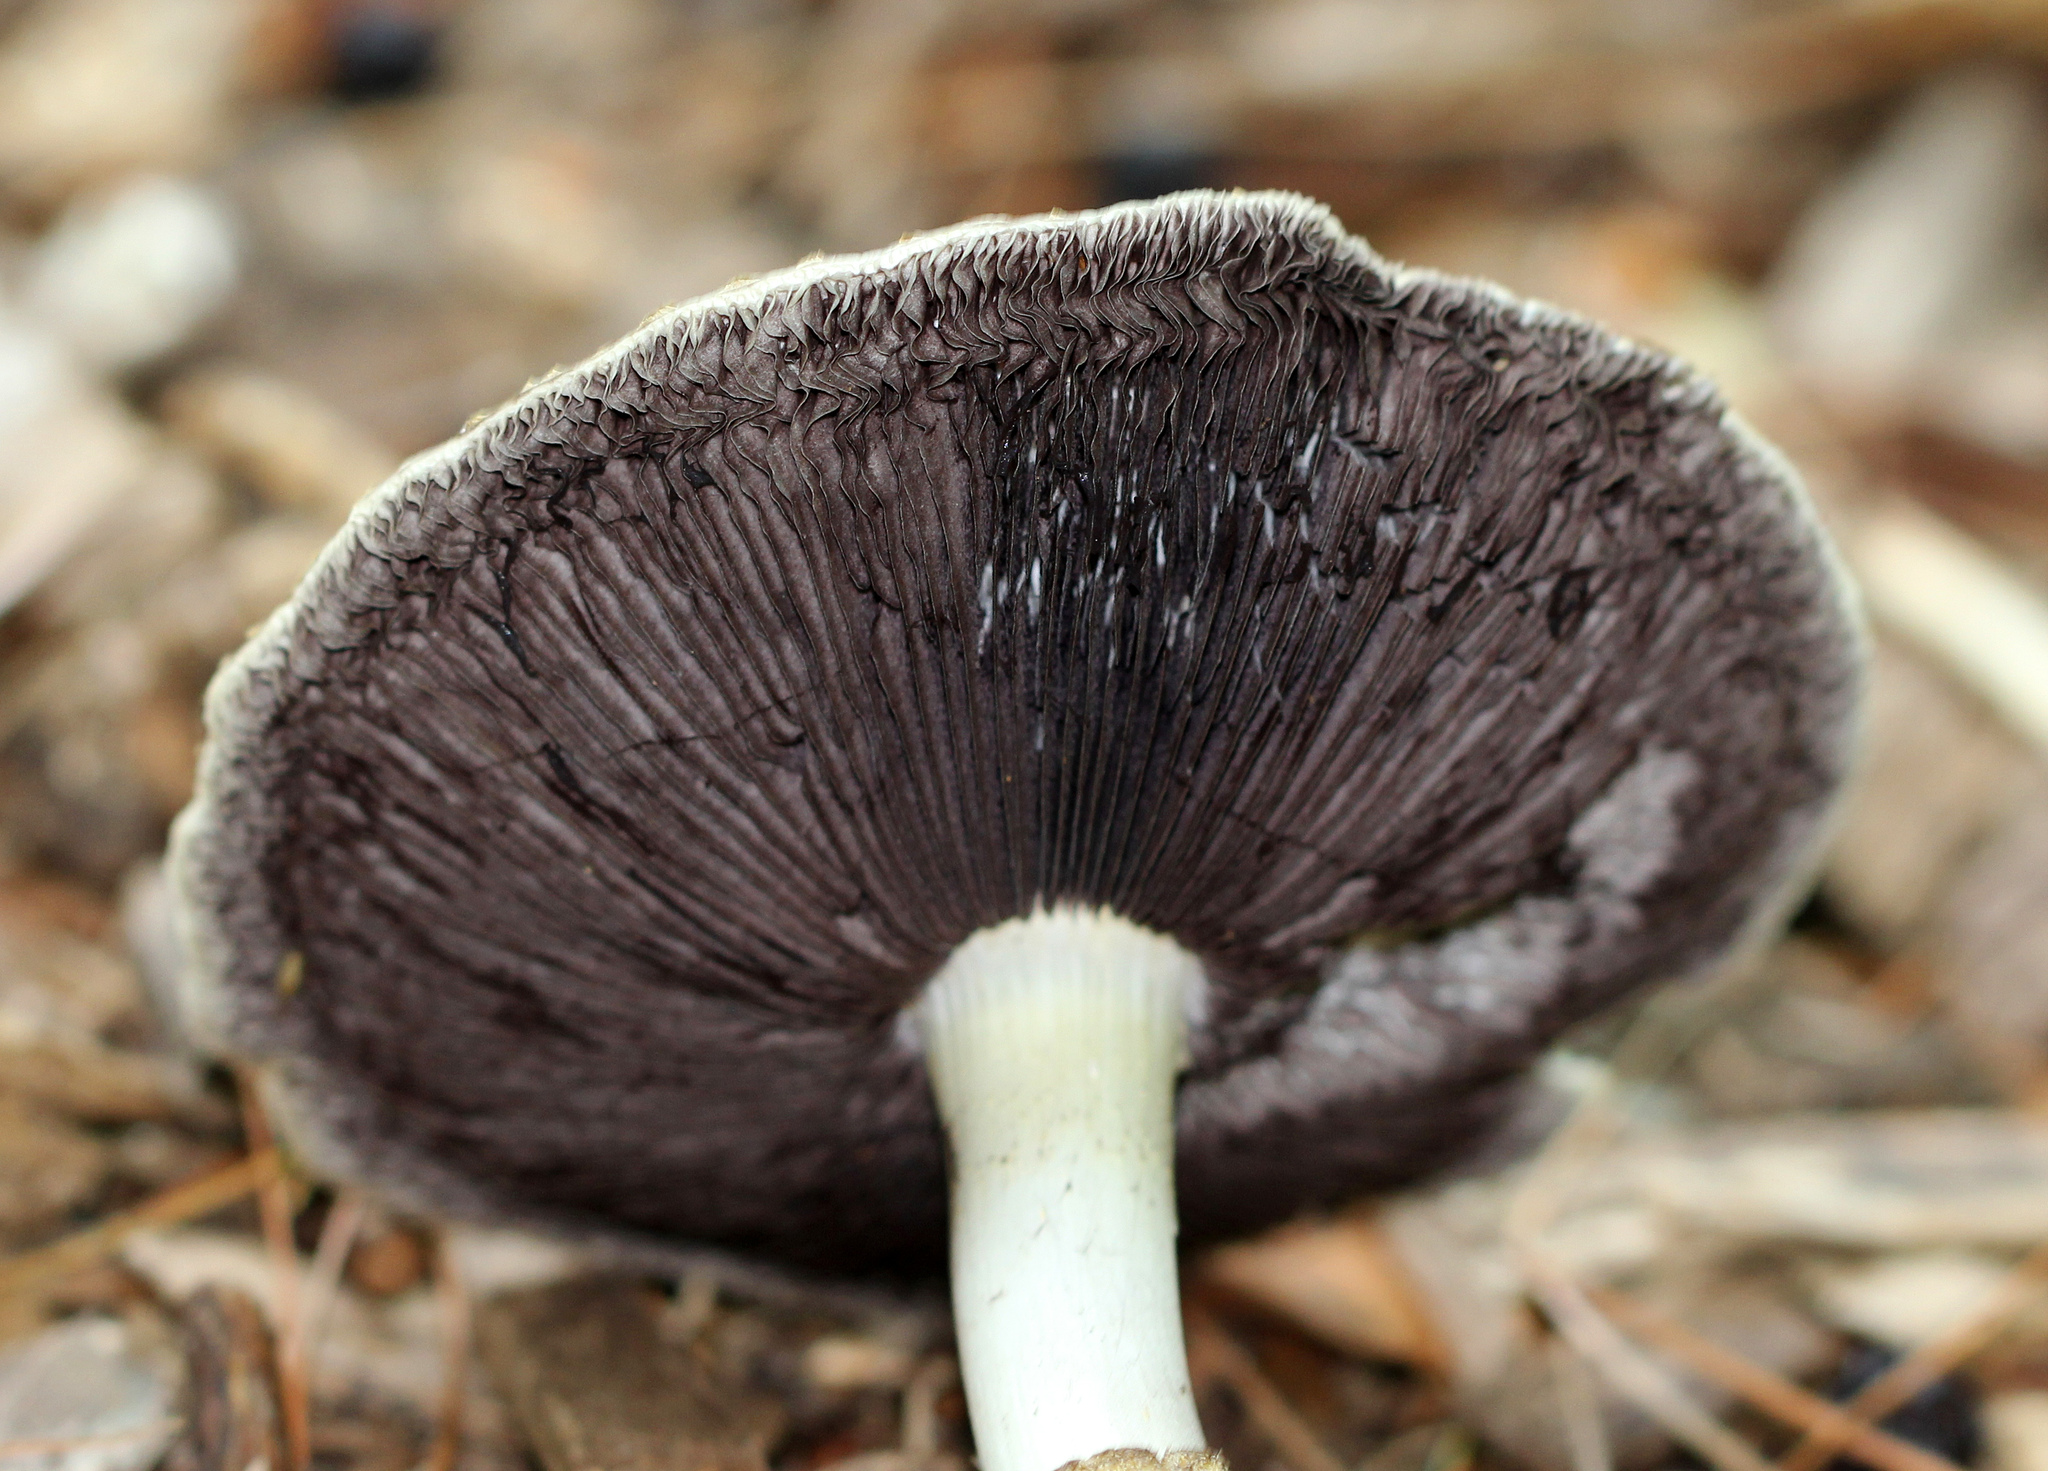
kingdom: Fungi
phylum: Basidiomycota
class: Agaricomycetes
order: Agaricales
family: Strophariaceae
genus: Stropharia
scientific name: Stropharia rugosoannulata
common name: Wine roundhead
